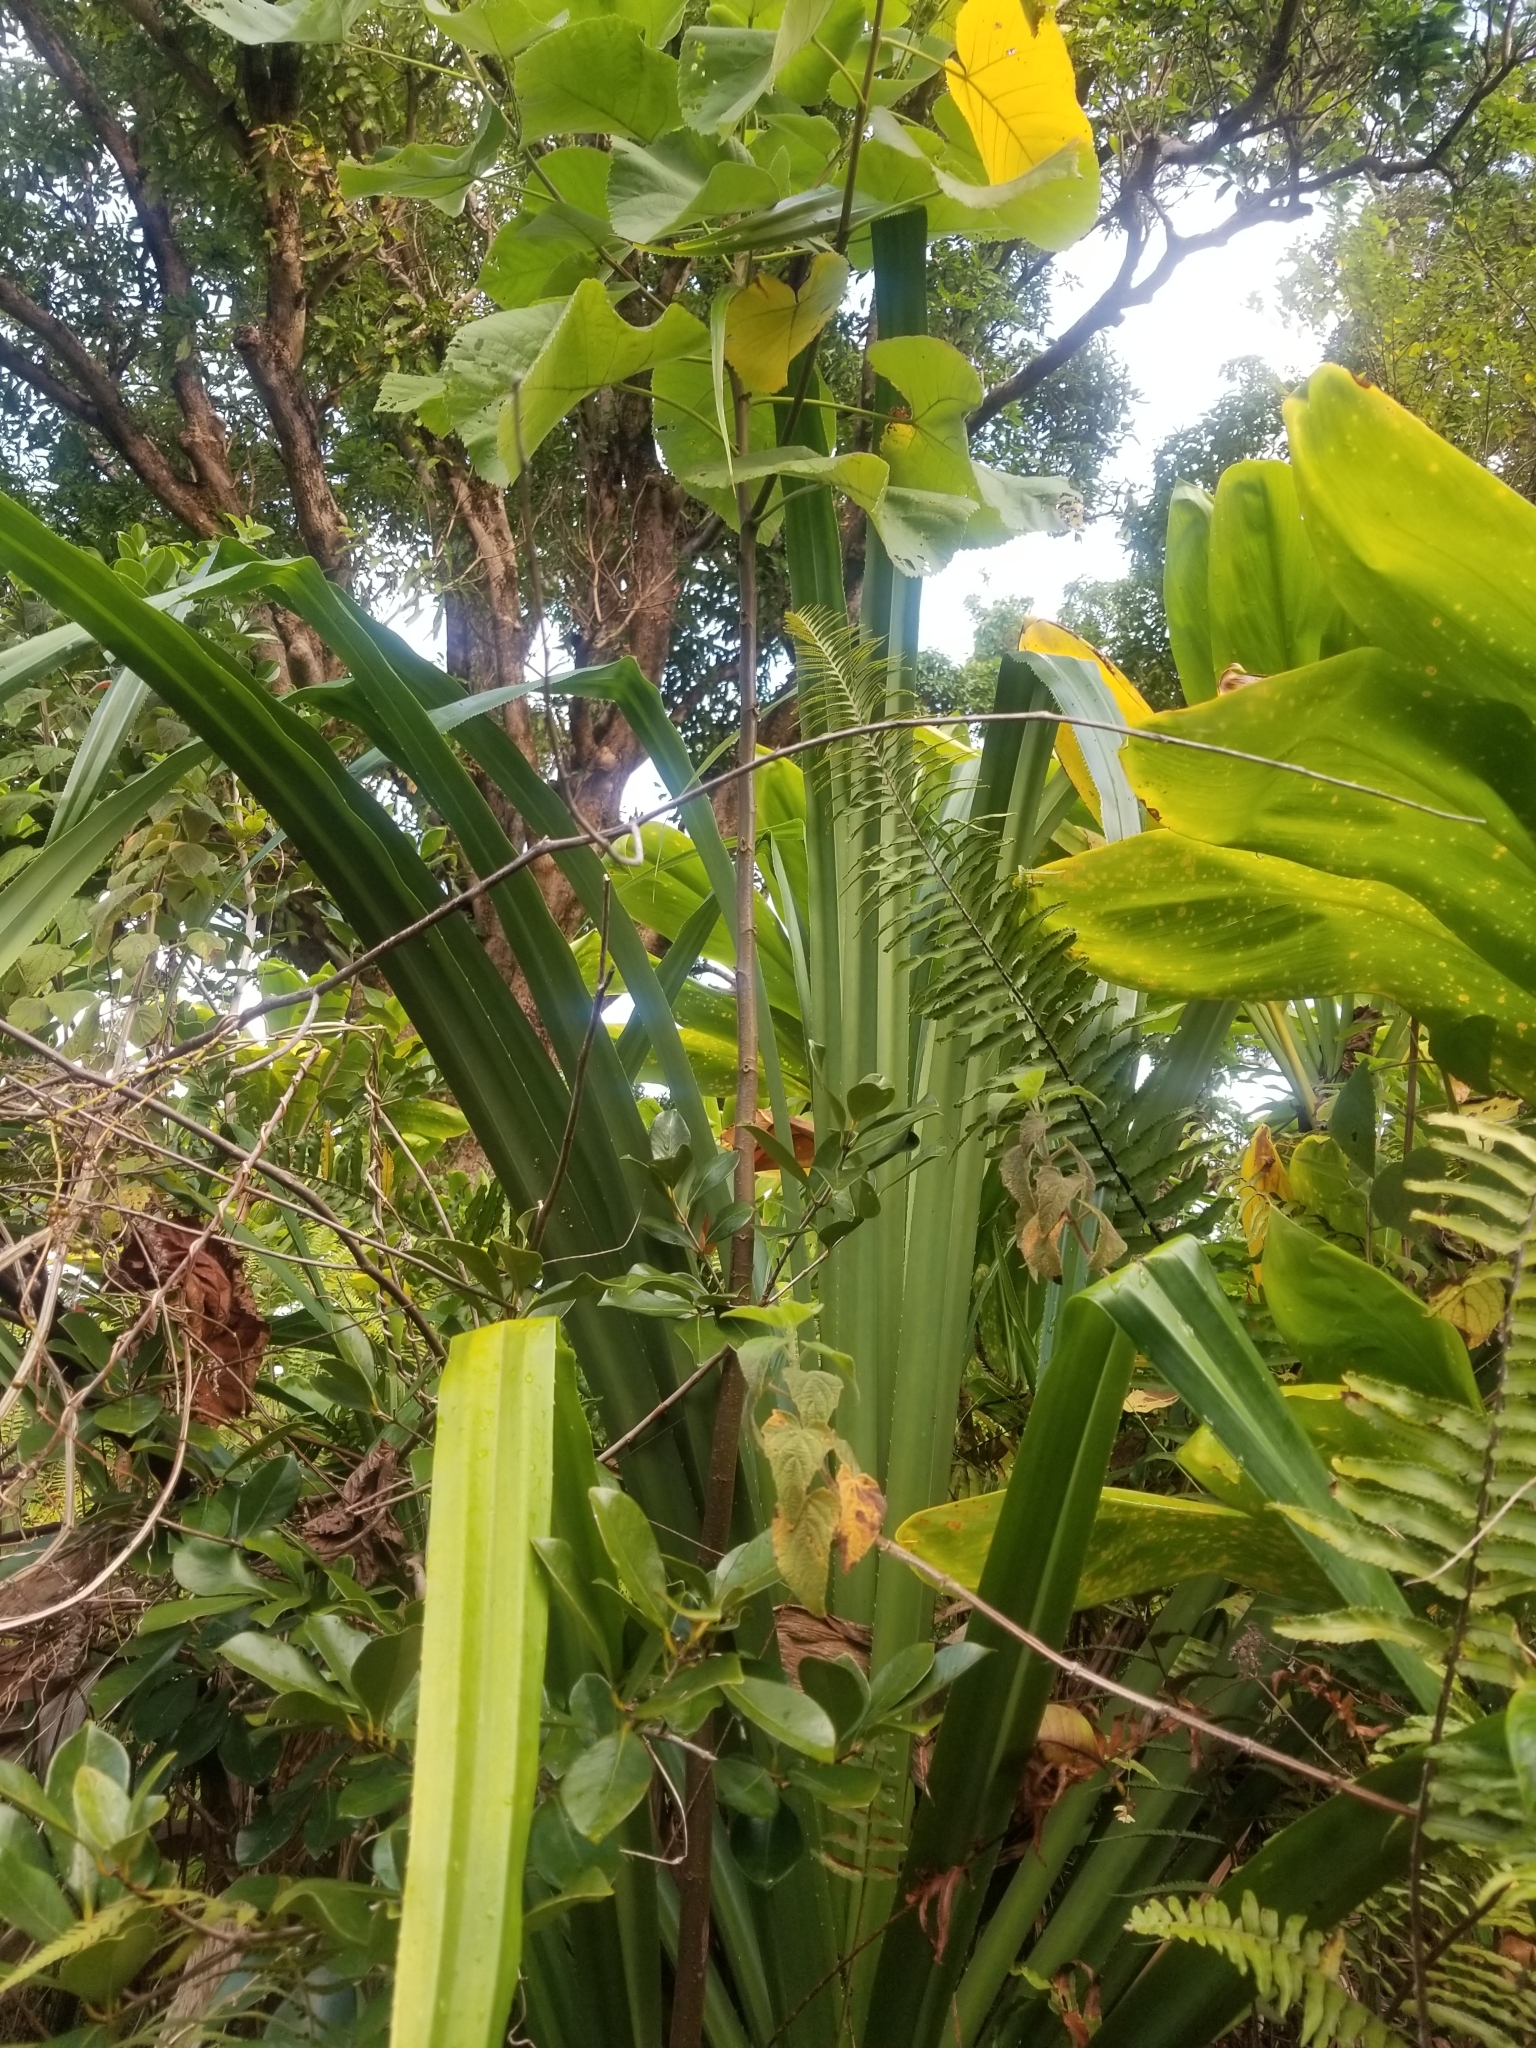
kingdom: Plantae
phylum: Tracheophyta
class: Liliopsida
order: Pandanales
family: Pandanaceae
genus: Pandanus
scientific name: Pandanus tectorius
